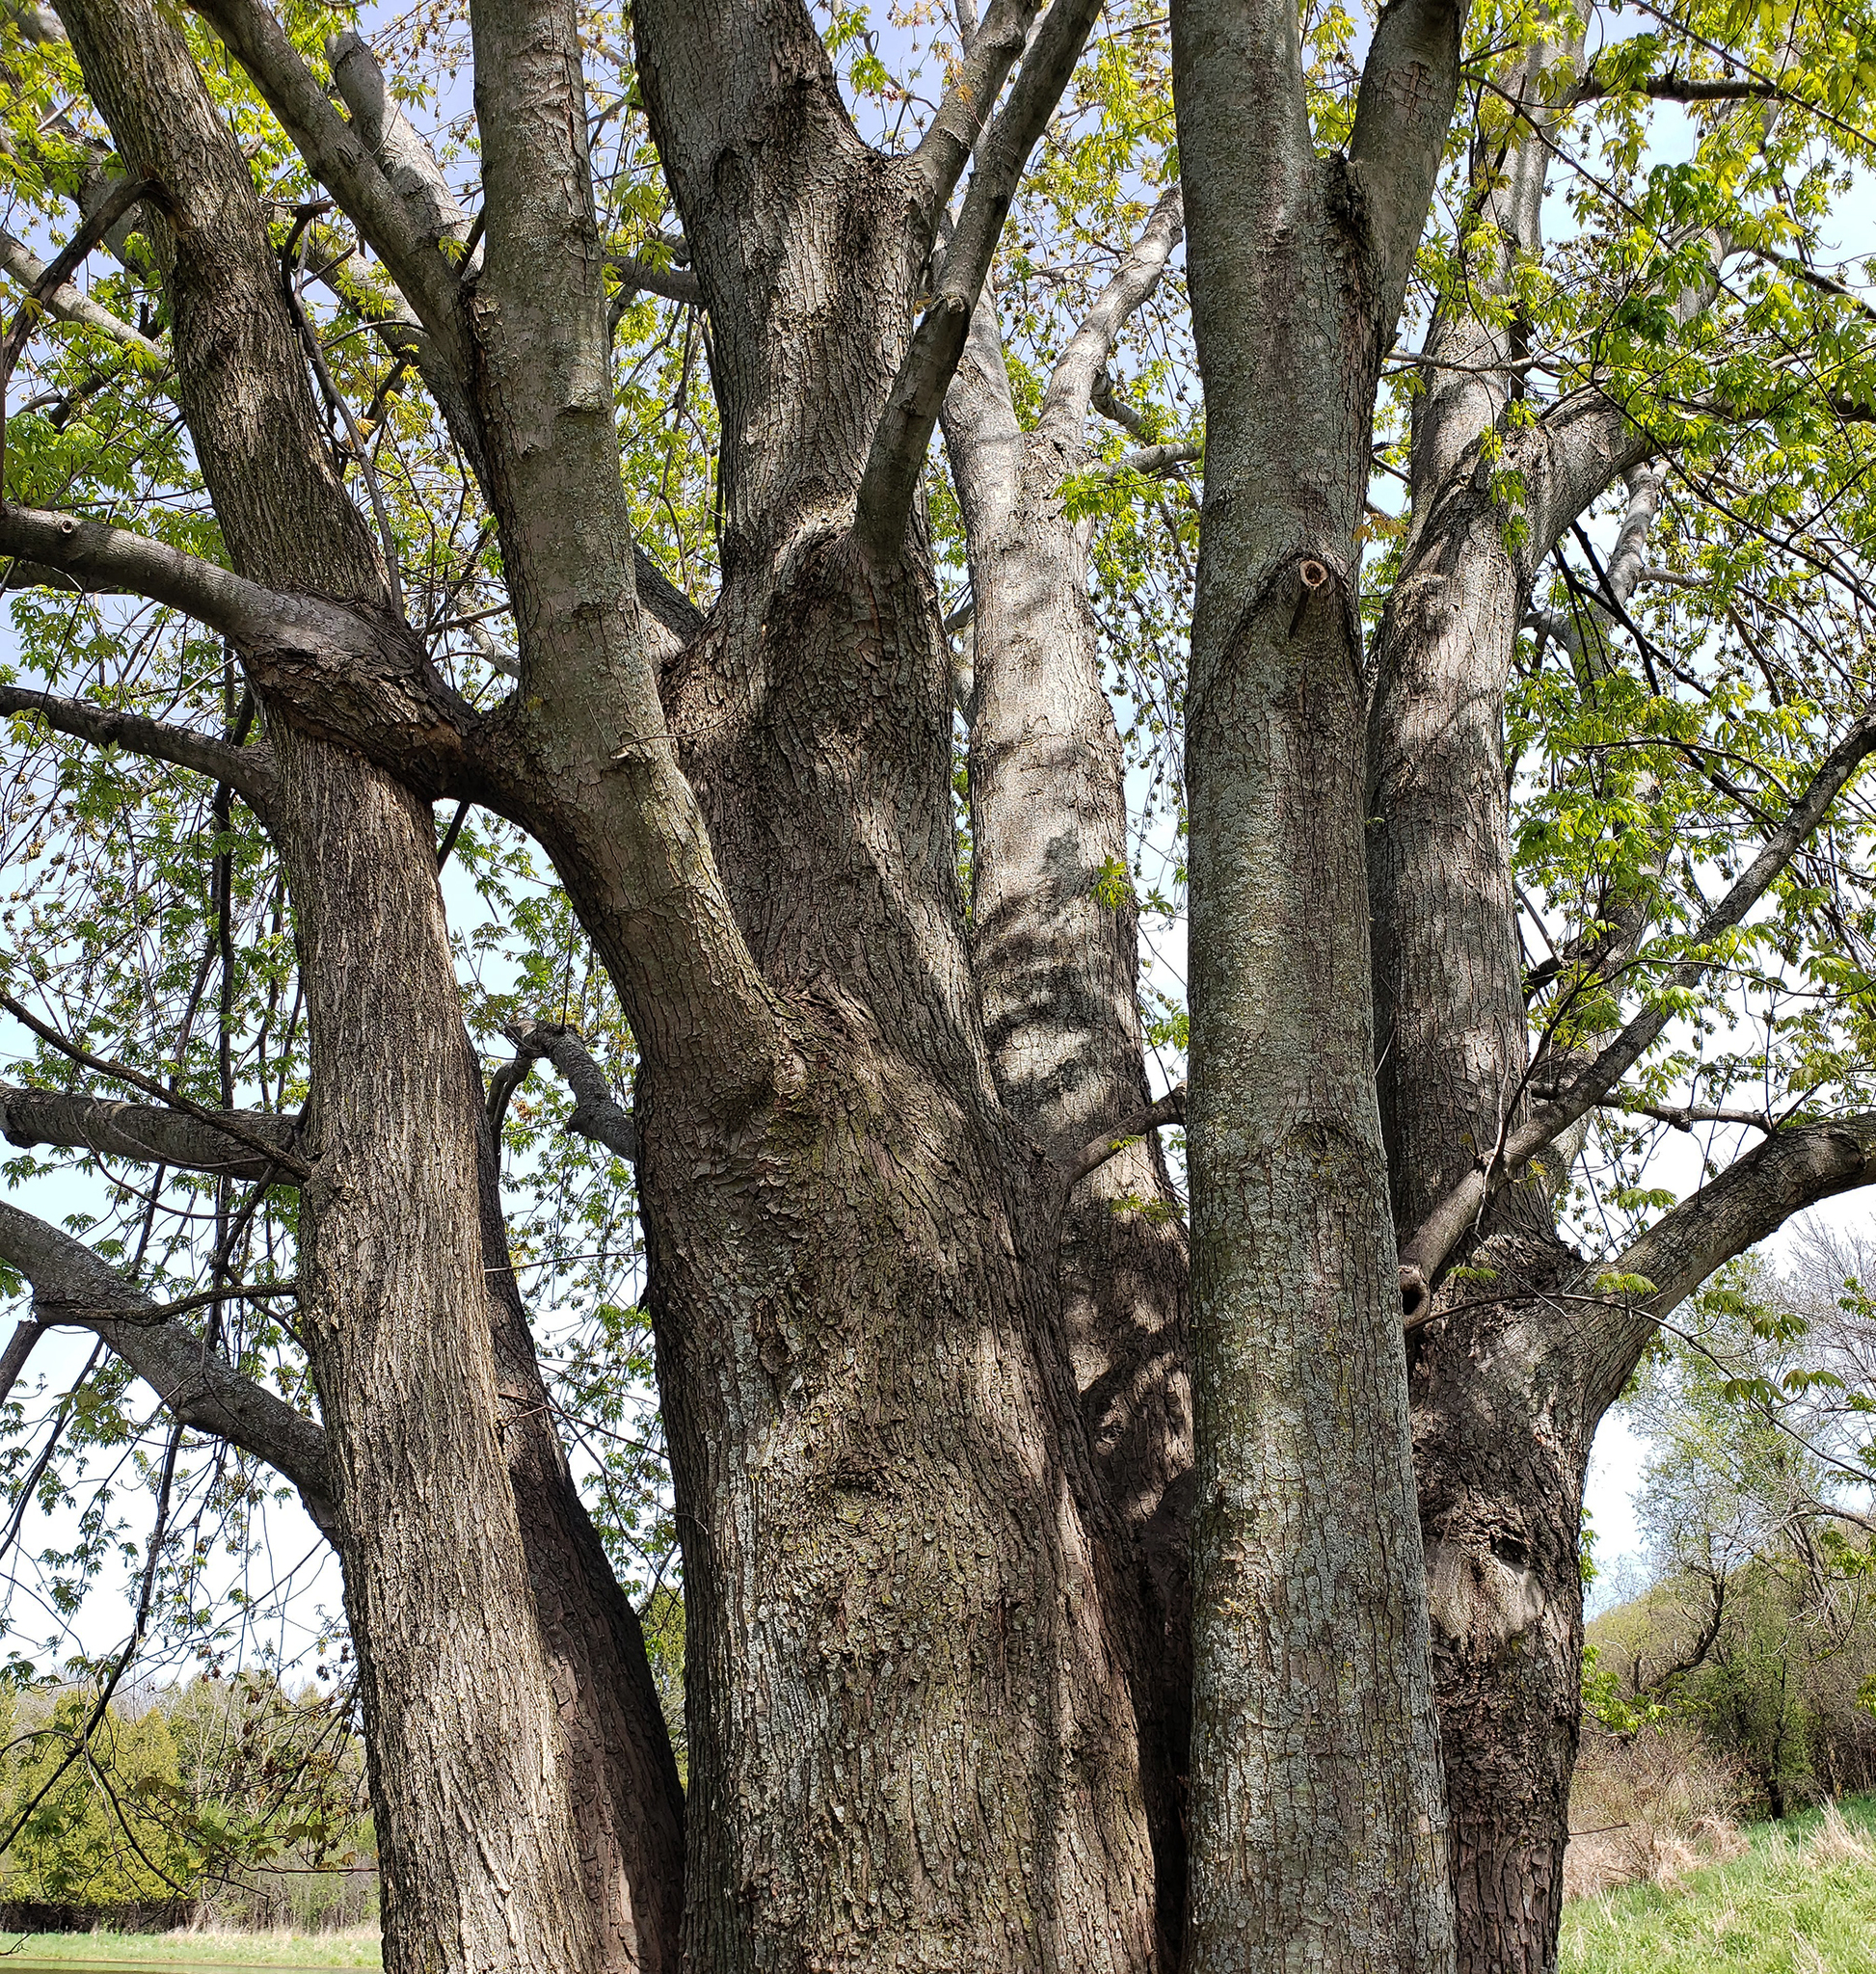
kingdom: Plantae
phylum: Tracheophyta
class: Magnoliopsida
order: Sapindales
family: Sapindaceae
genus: Acer
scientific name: Acer saccharinum
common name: Silver maple
